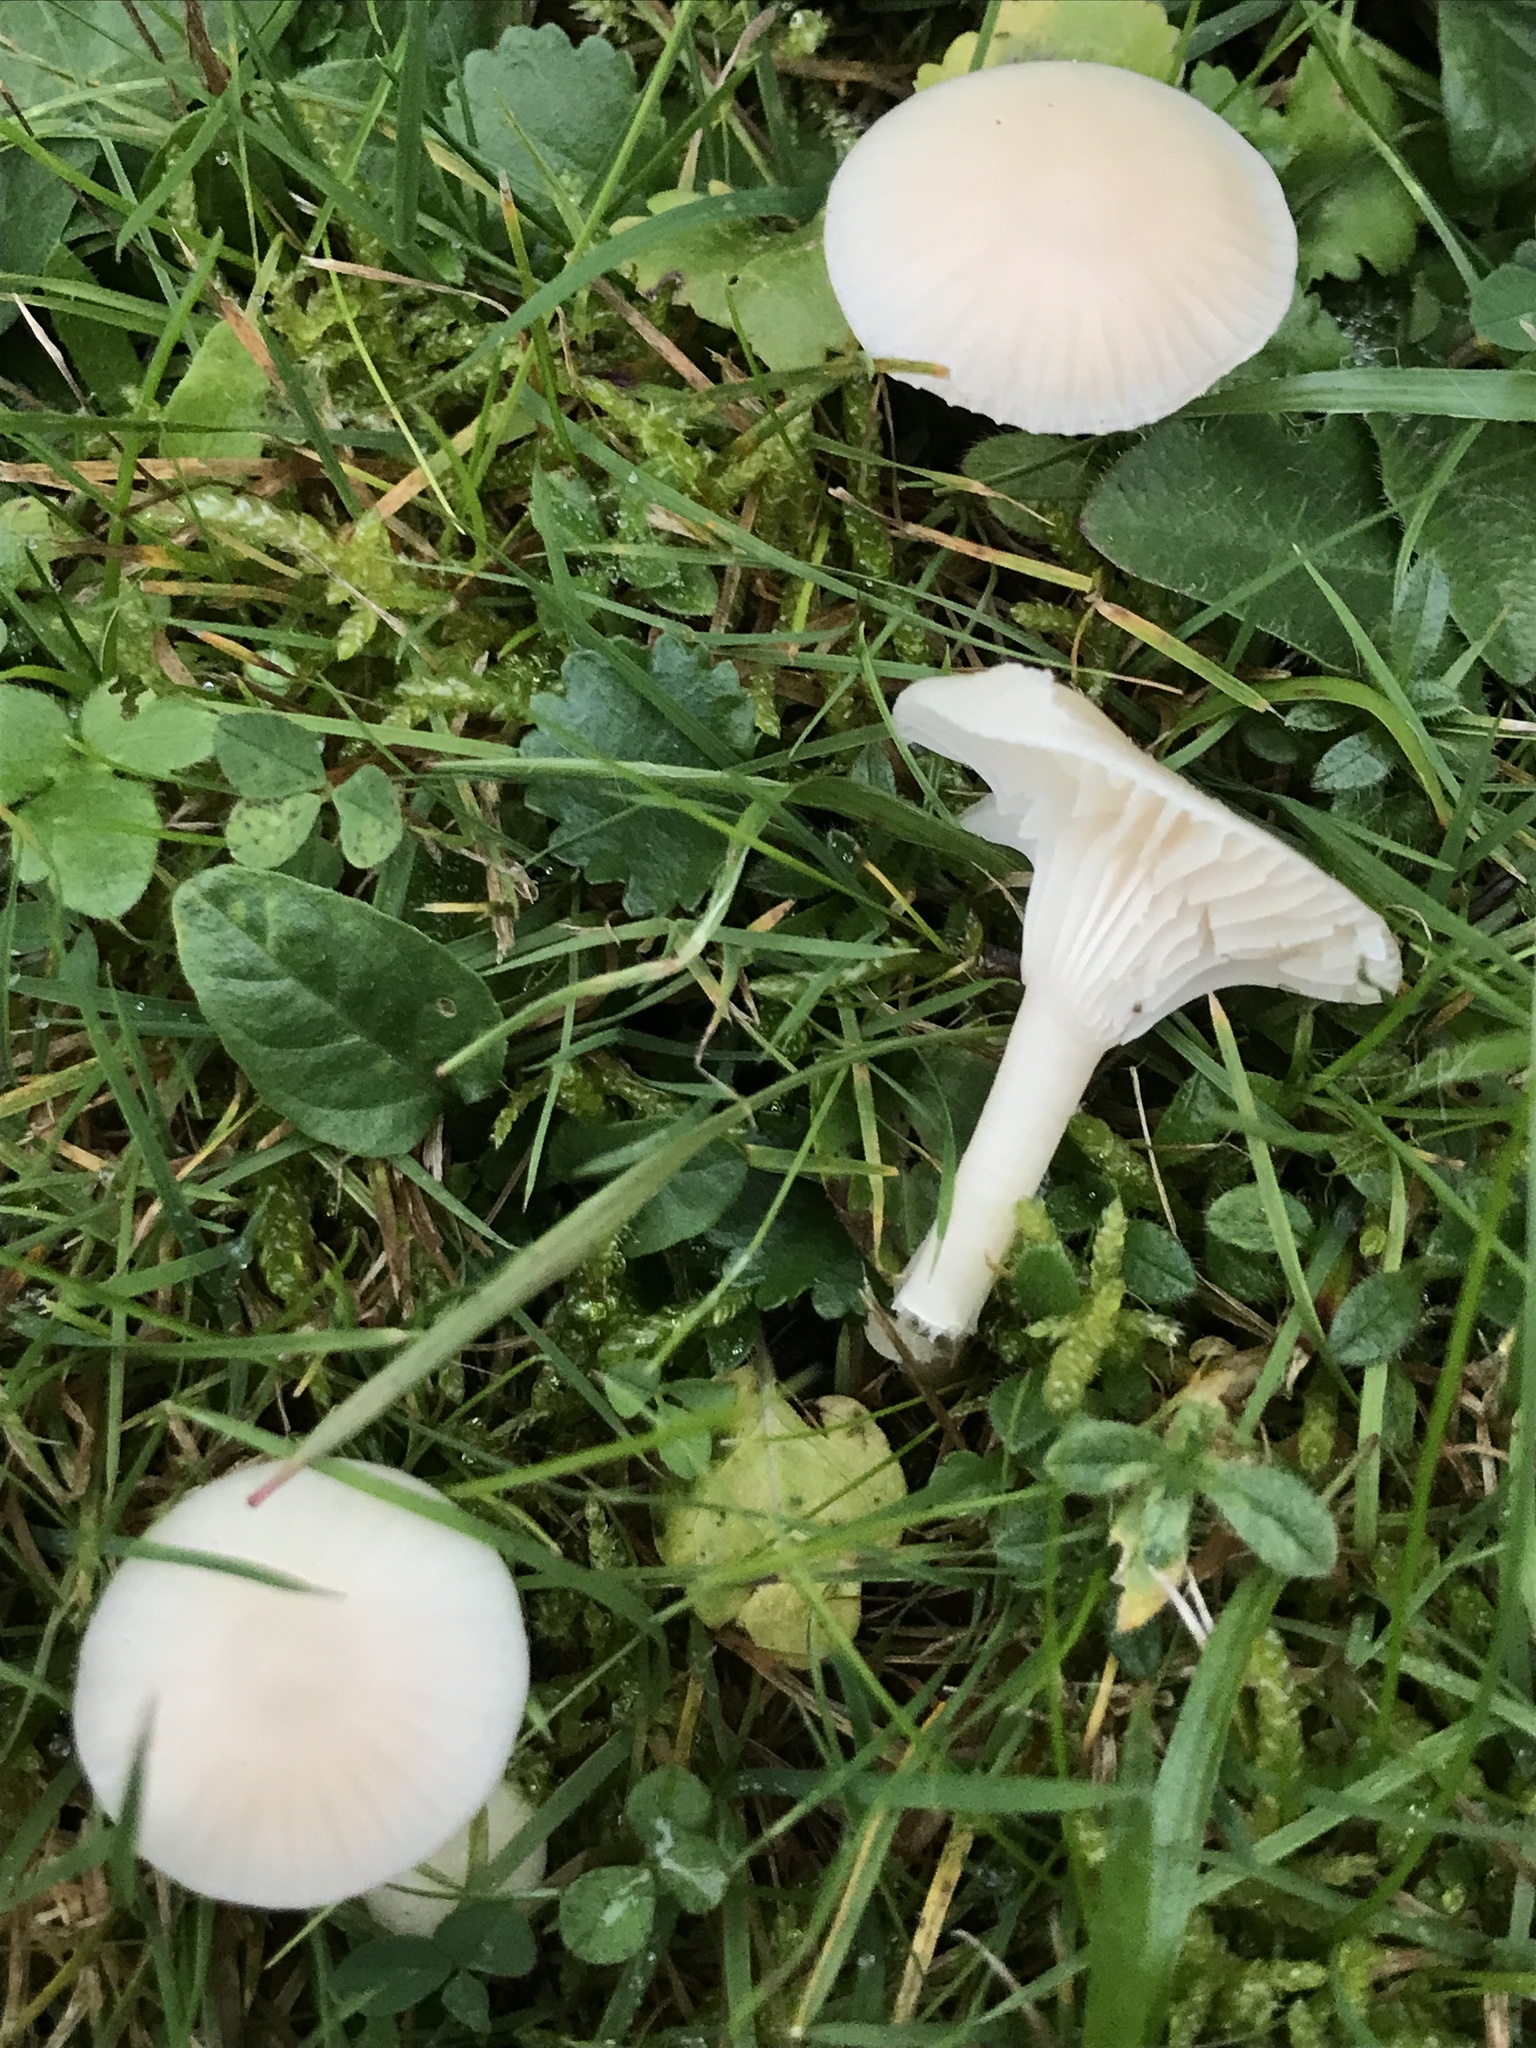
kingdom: Fungi
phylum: Basidiomycota
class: Agaricomycetes
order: Agaricales
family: Hygrophoraceae
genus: Cuphophyllus
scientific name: Cuphophyllus virgineus
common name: Snowy waxcap
